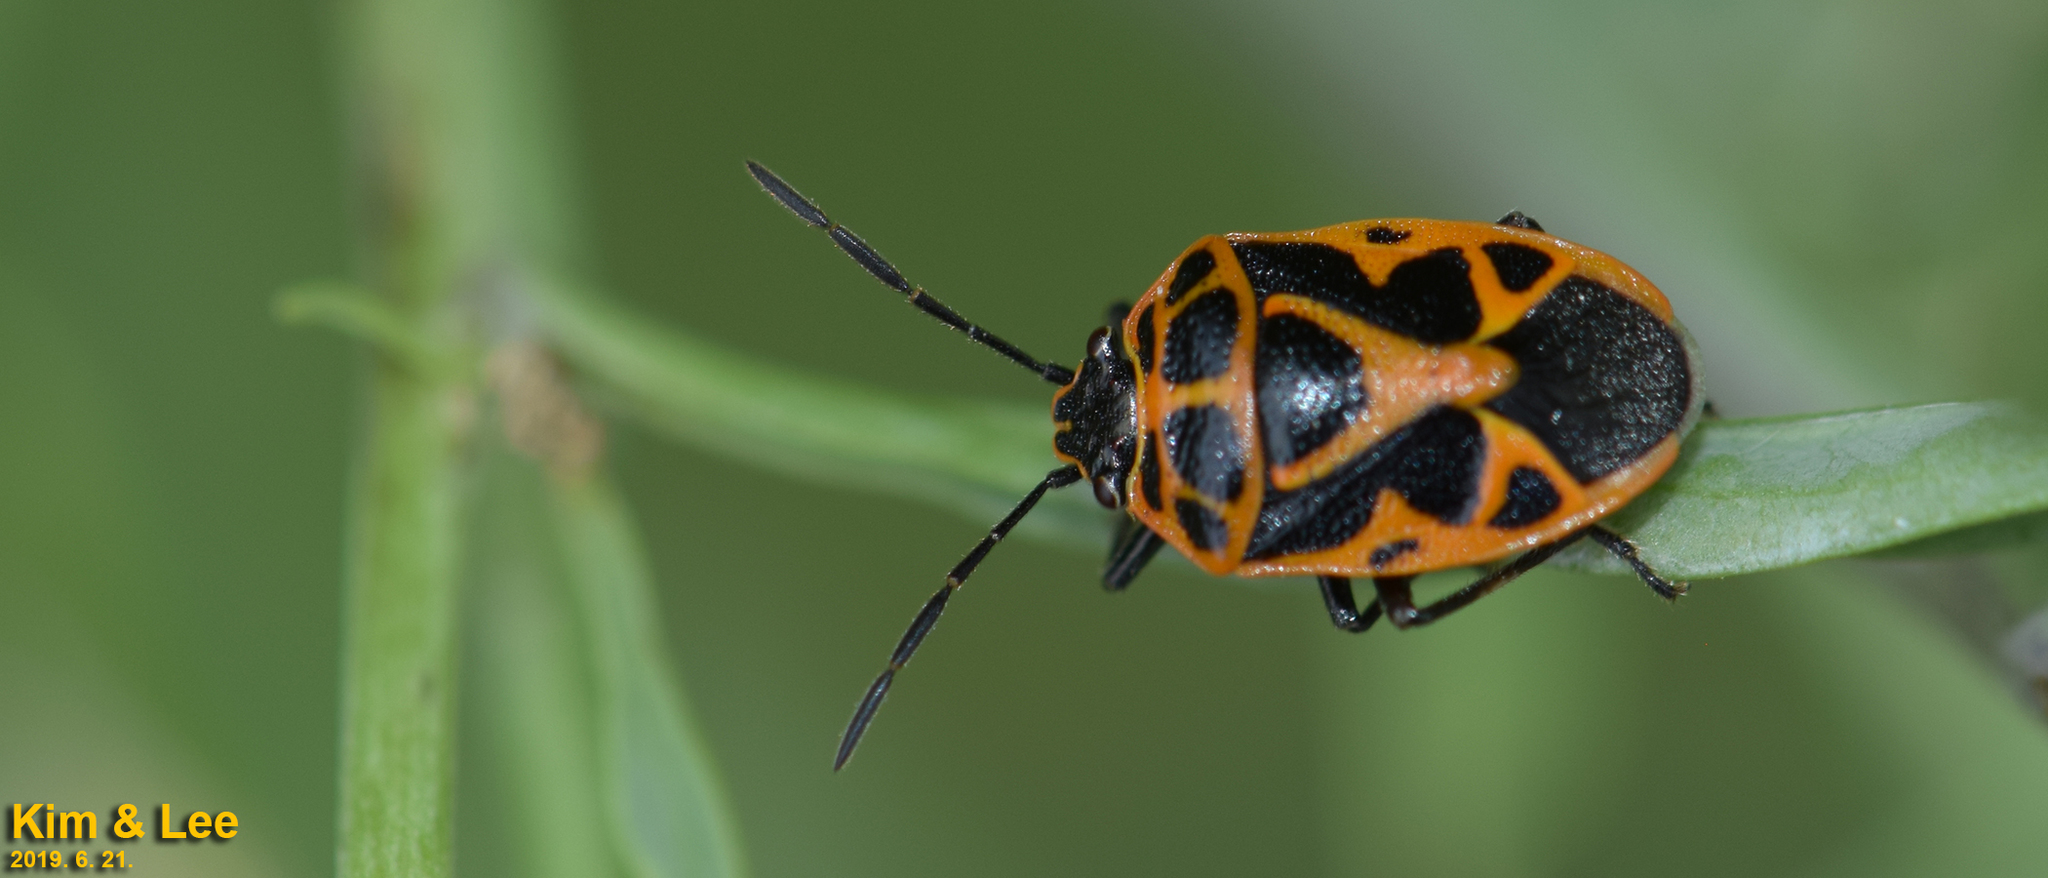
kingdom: Animalia
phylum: Arthropoda
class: Insecta
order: Hemiptera
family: Pentatomidae
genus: Eurydema
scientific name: Eurydema dominulus
